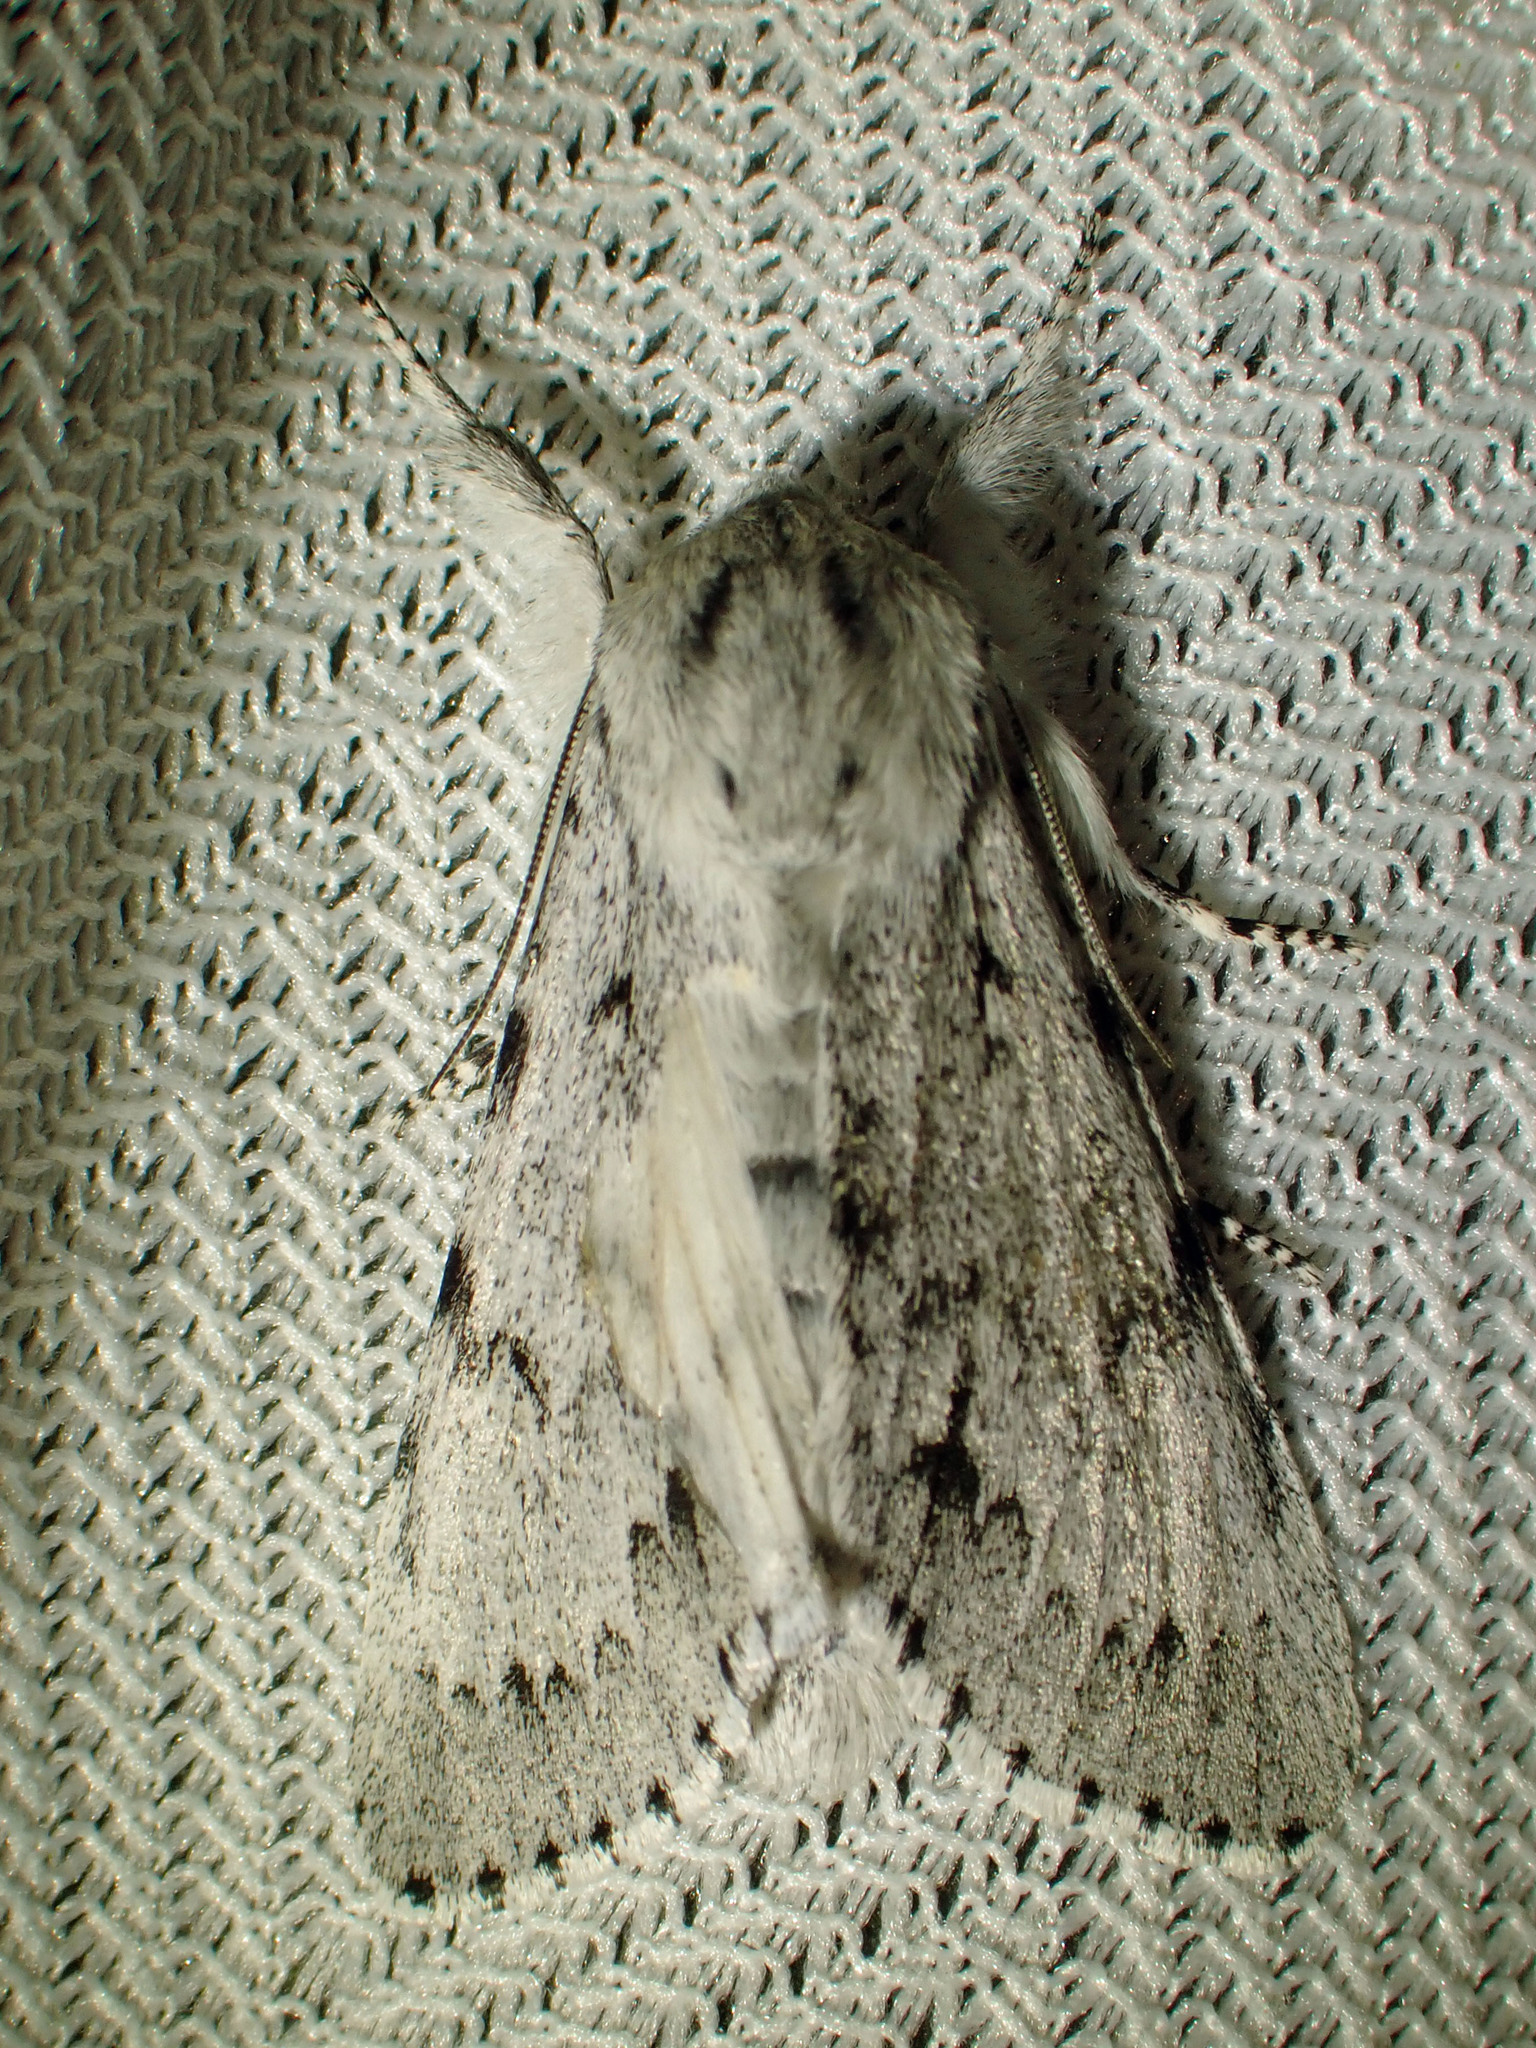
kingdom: Animalia
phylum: Arthropoda
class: Insecta
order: Lepidoptera
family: Noctuidae
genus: Acronicta
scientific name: Acronicta lepusculina
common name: Cottonwood dagger
